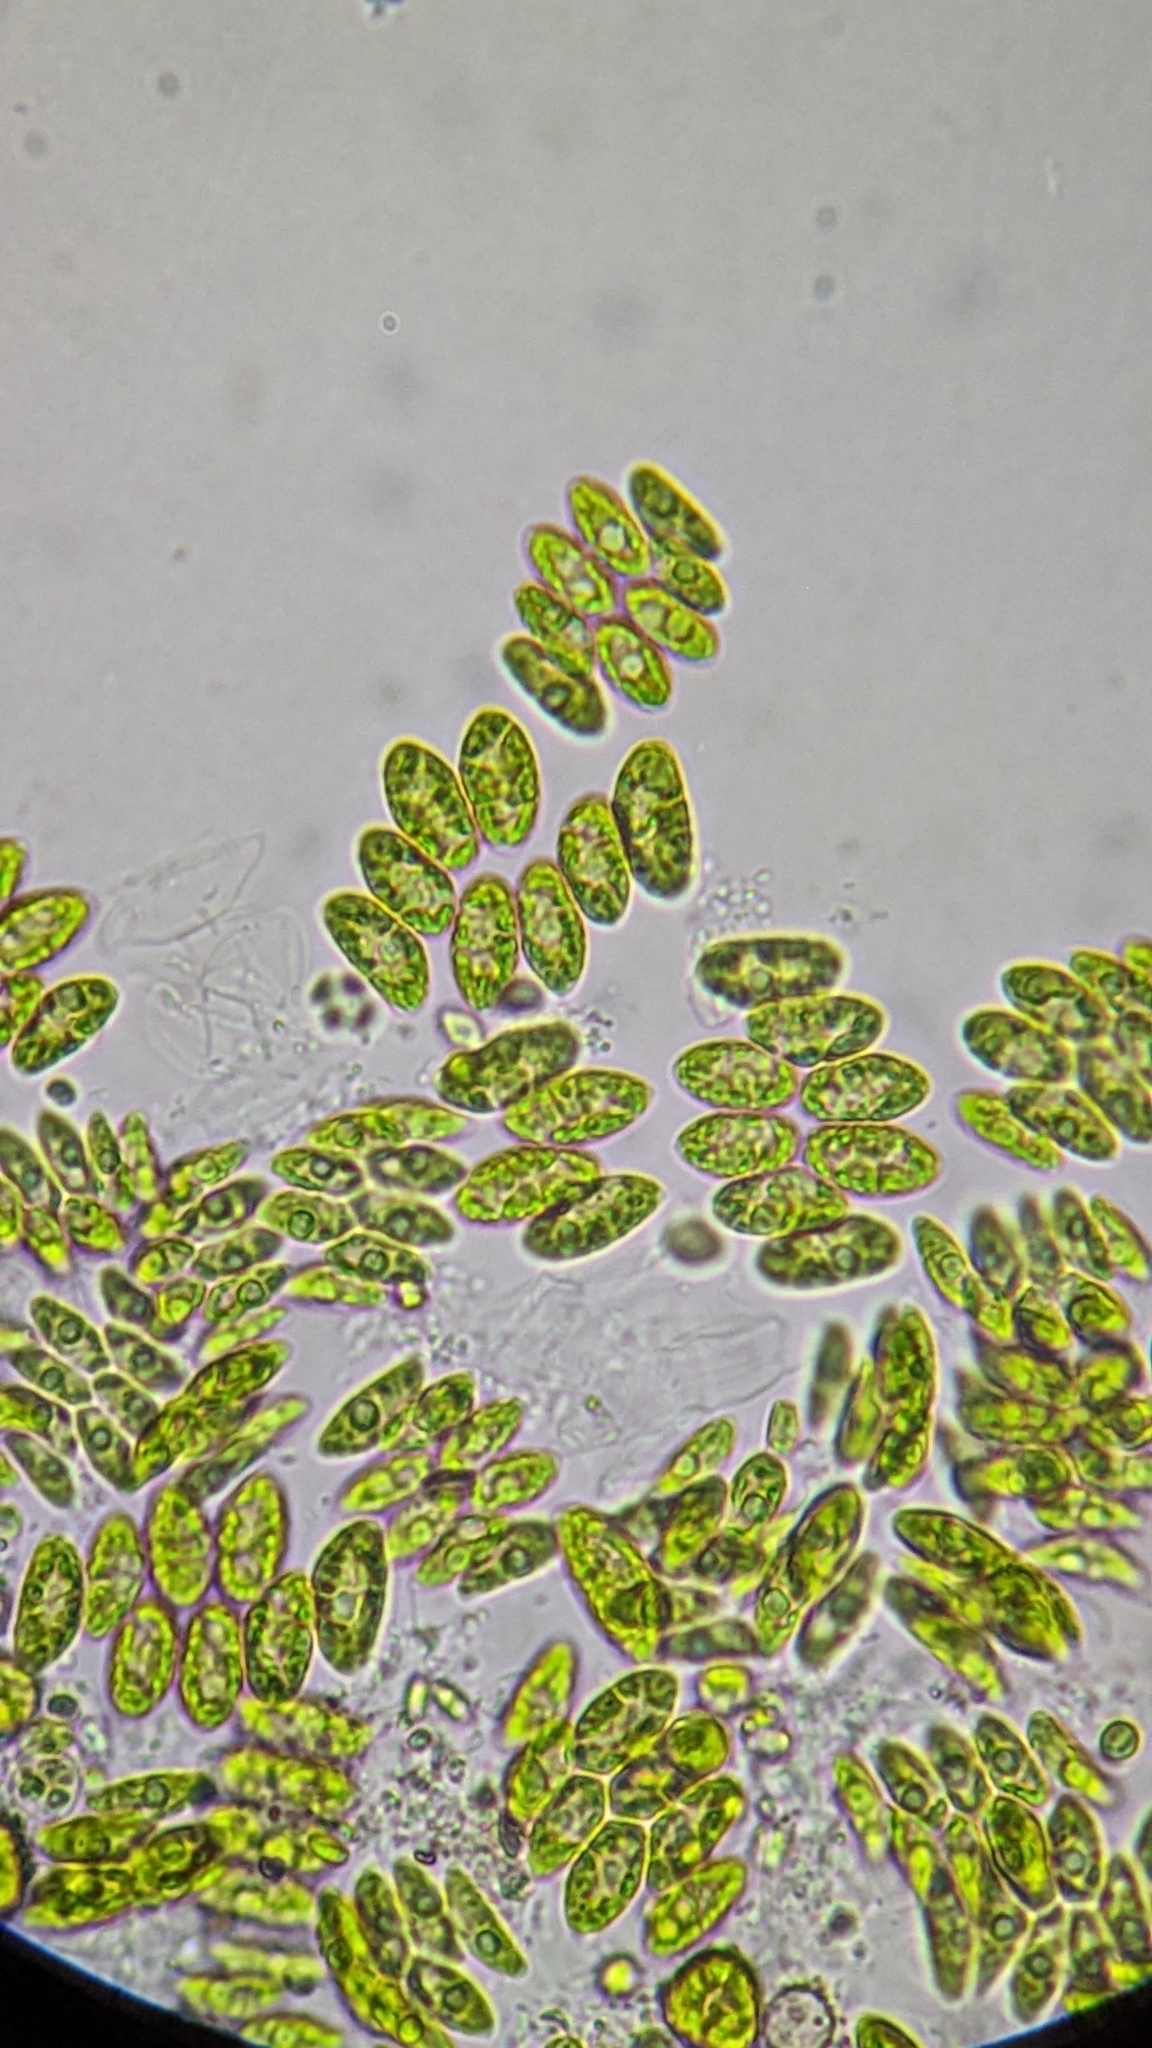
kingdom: Plantae
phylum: Chlorophyta
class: Chlorophyceae
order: Sphaeropleales
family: Scenedesmaceae
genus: Scenedesmus
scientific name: Scenedesmus obtusus
